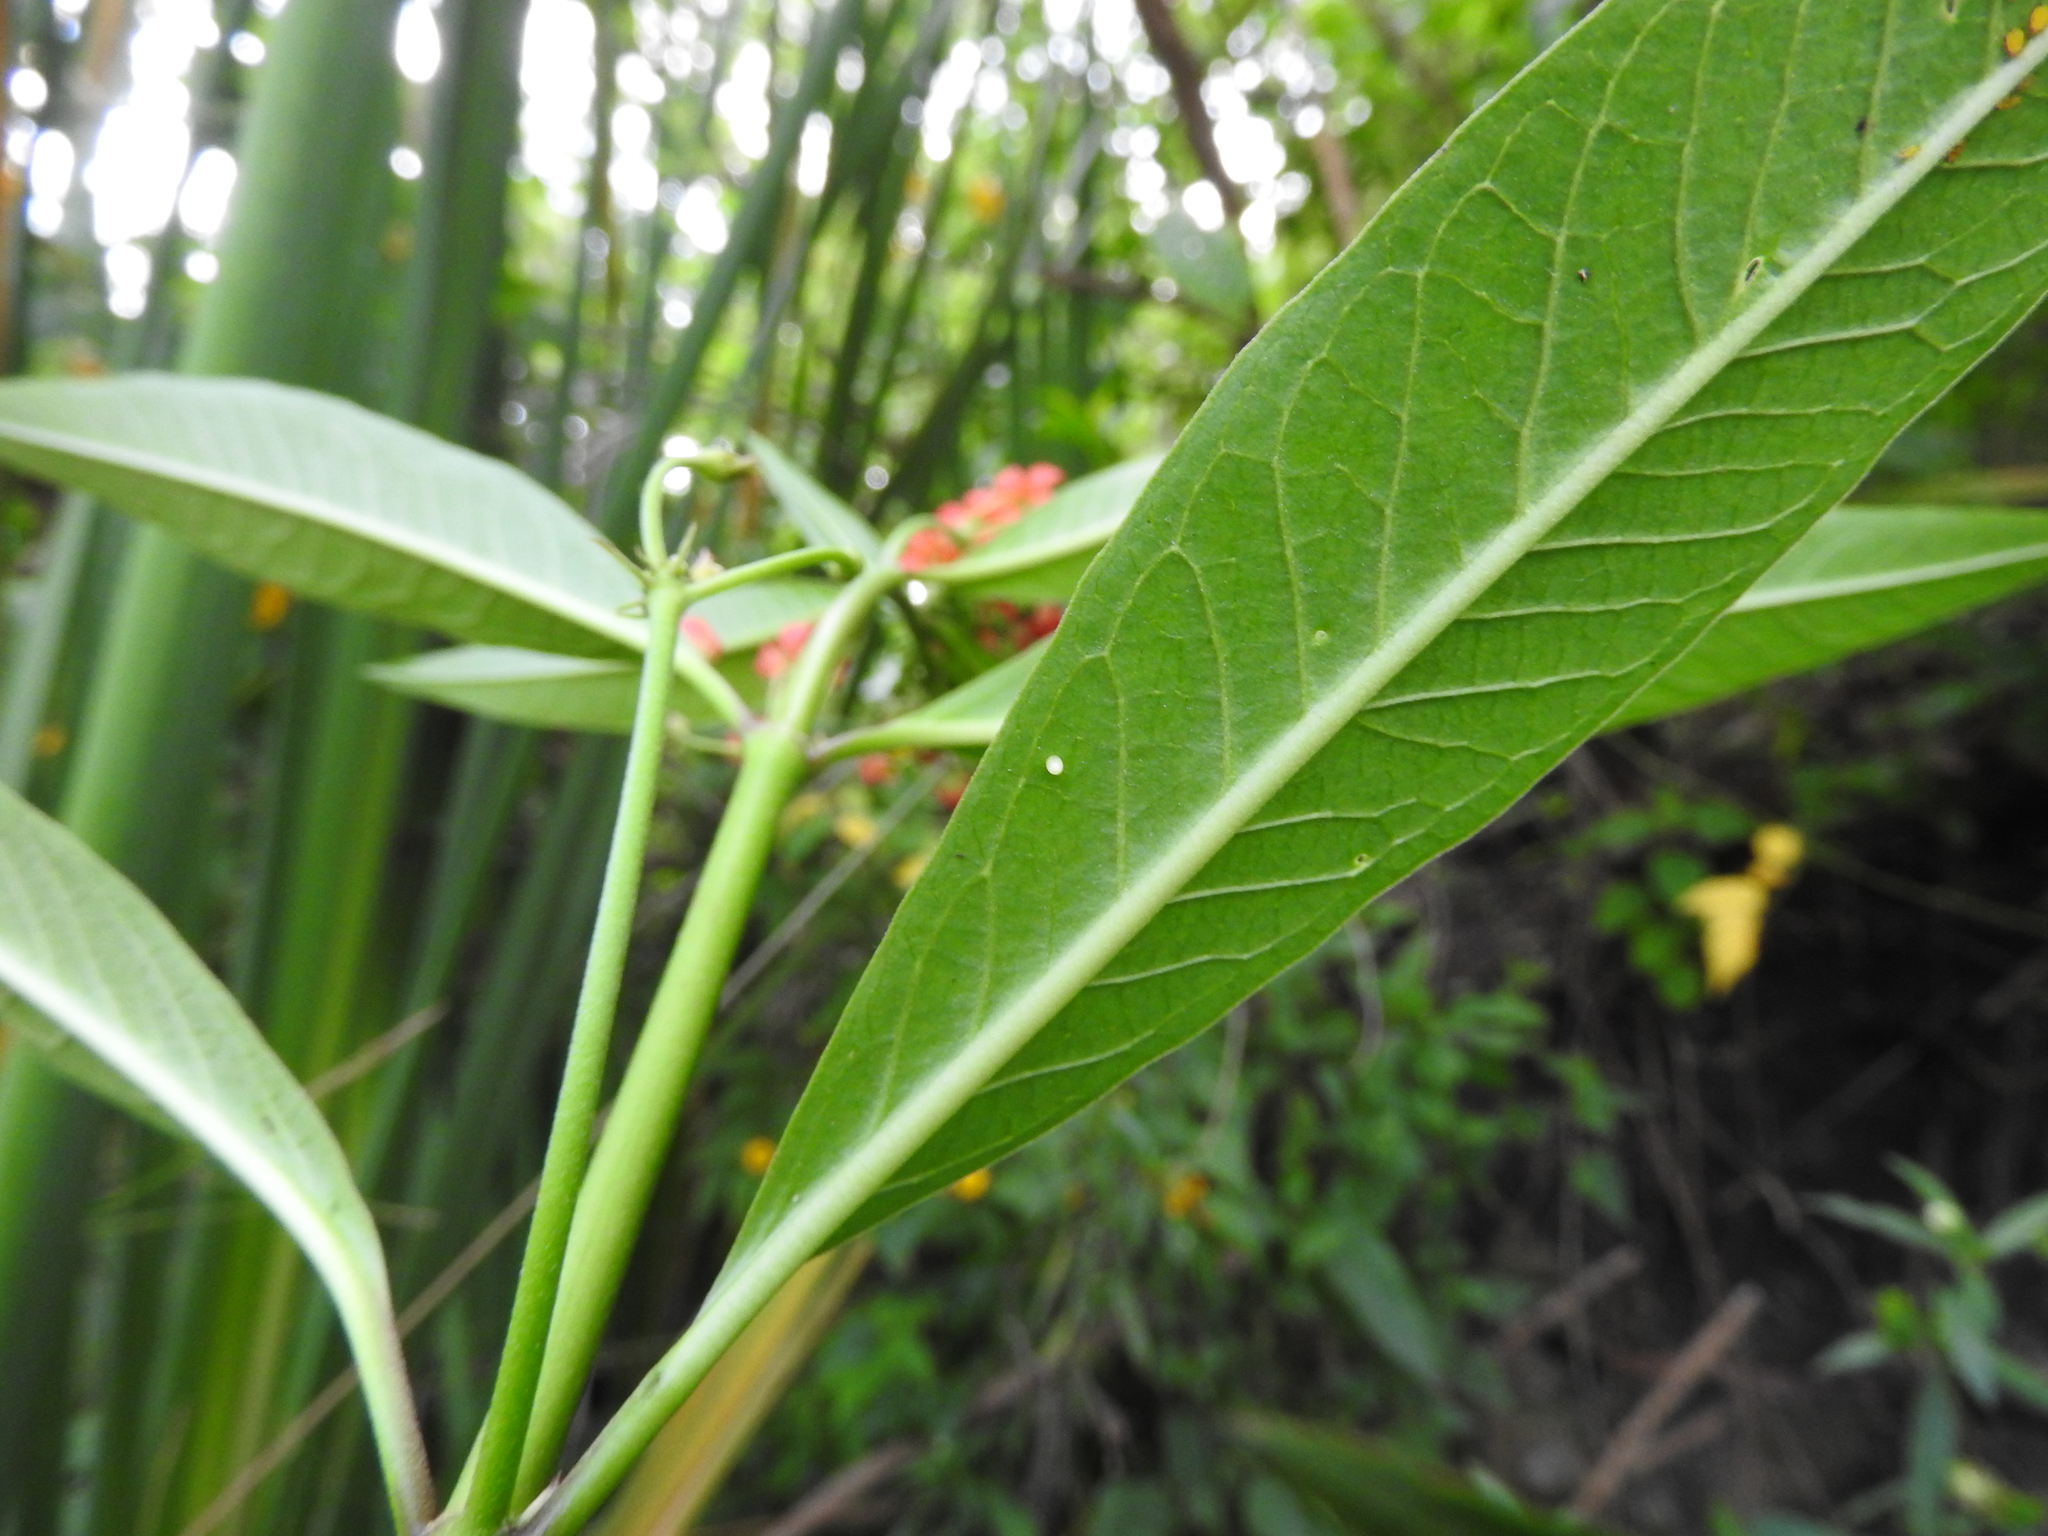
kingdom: Animalia
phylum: Arthropoda
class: Insecta
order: Lepidoptera
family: Nymphalidae
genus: Danaus
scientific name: Danaus plexippus
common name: Monarch
